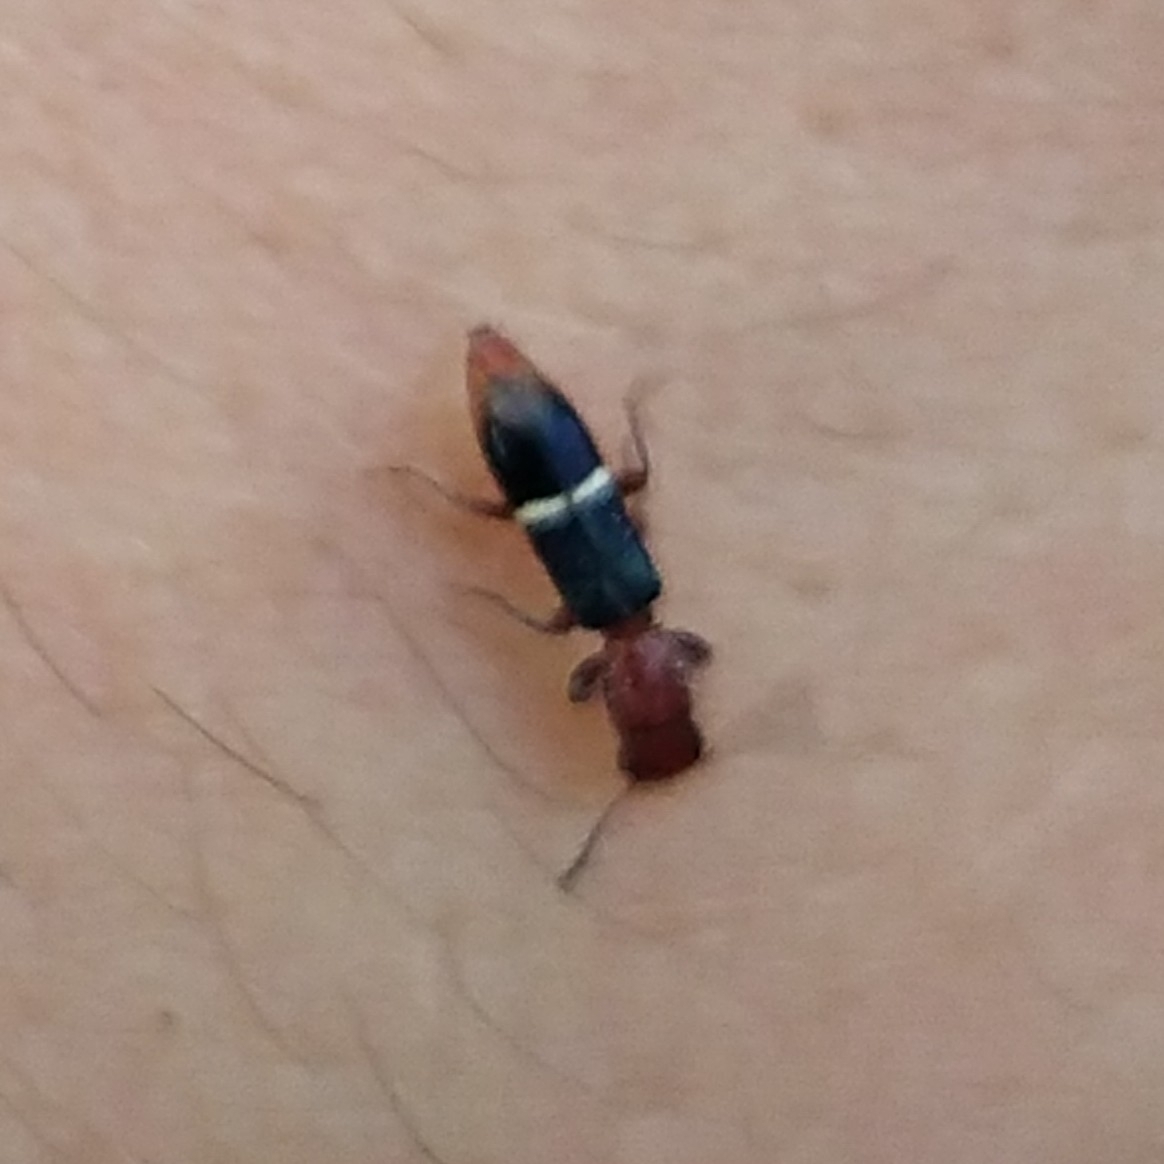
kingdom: Animalia
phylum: Arthropoda
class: Insecta
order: Coleoptera
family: Cleridae
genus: Tarsostenus
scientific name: Tarsostenus carus
